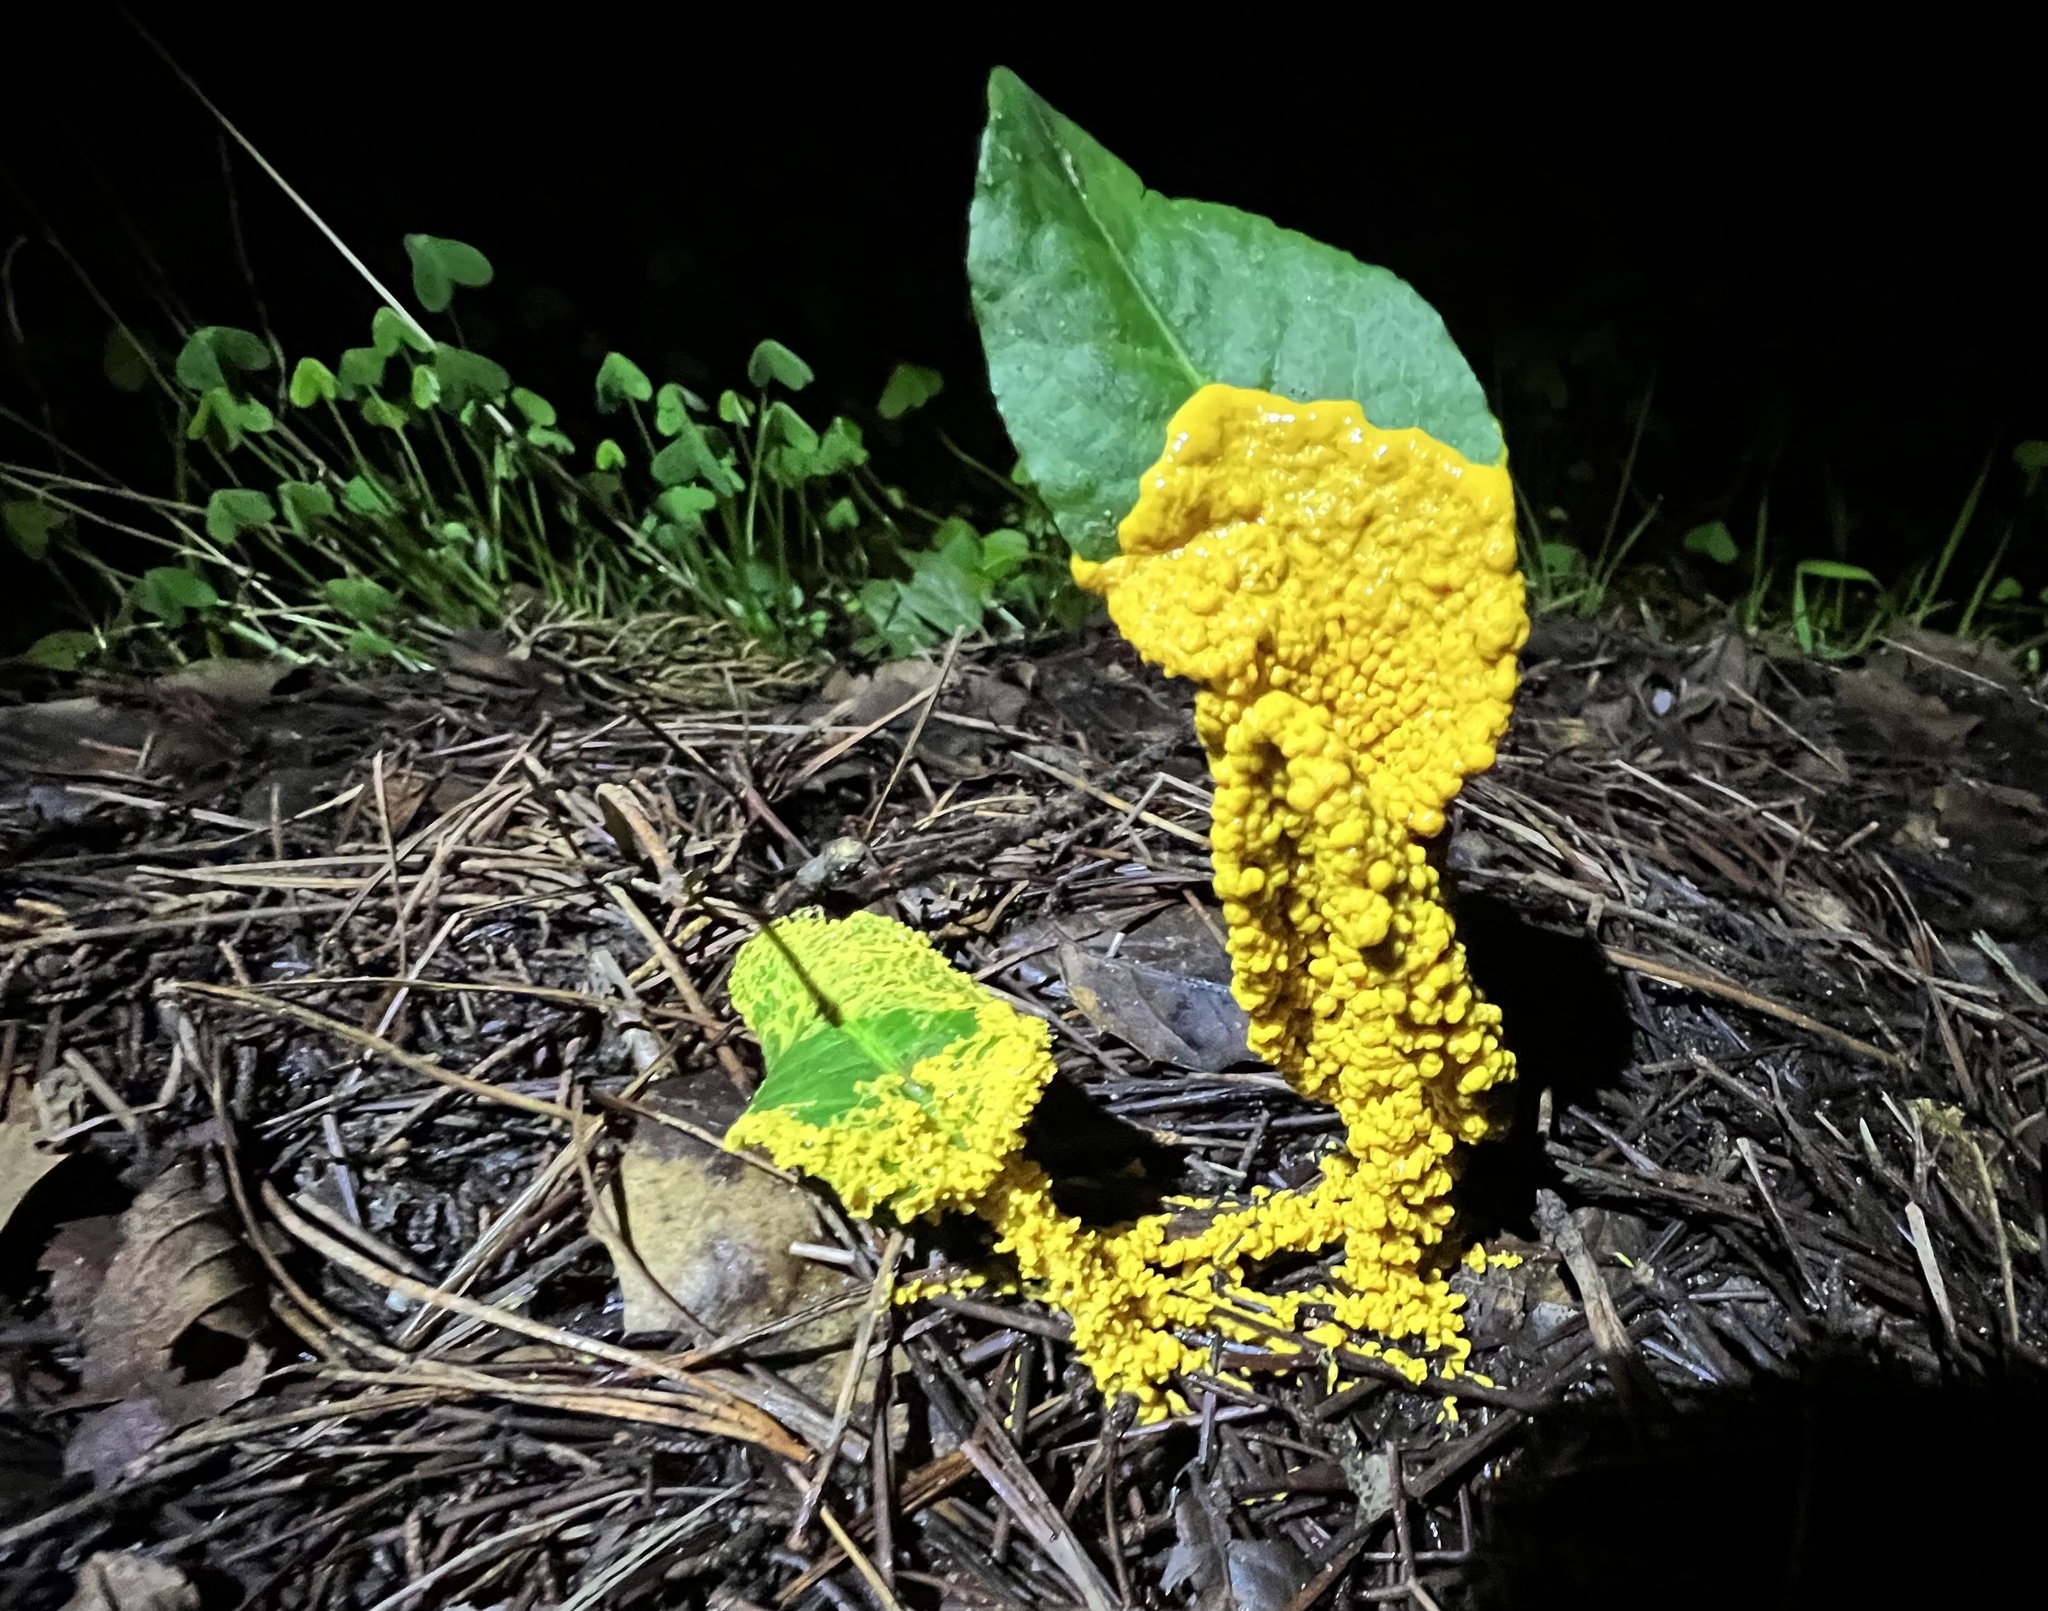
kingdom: Protozoa
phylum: Mycetozoa
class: Myxomycetes
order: Physarales
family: Physaraceae
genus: Fuligo
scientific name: Fuligo septica
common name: Dog vomit slime mold
